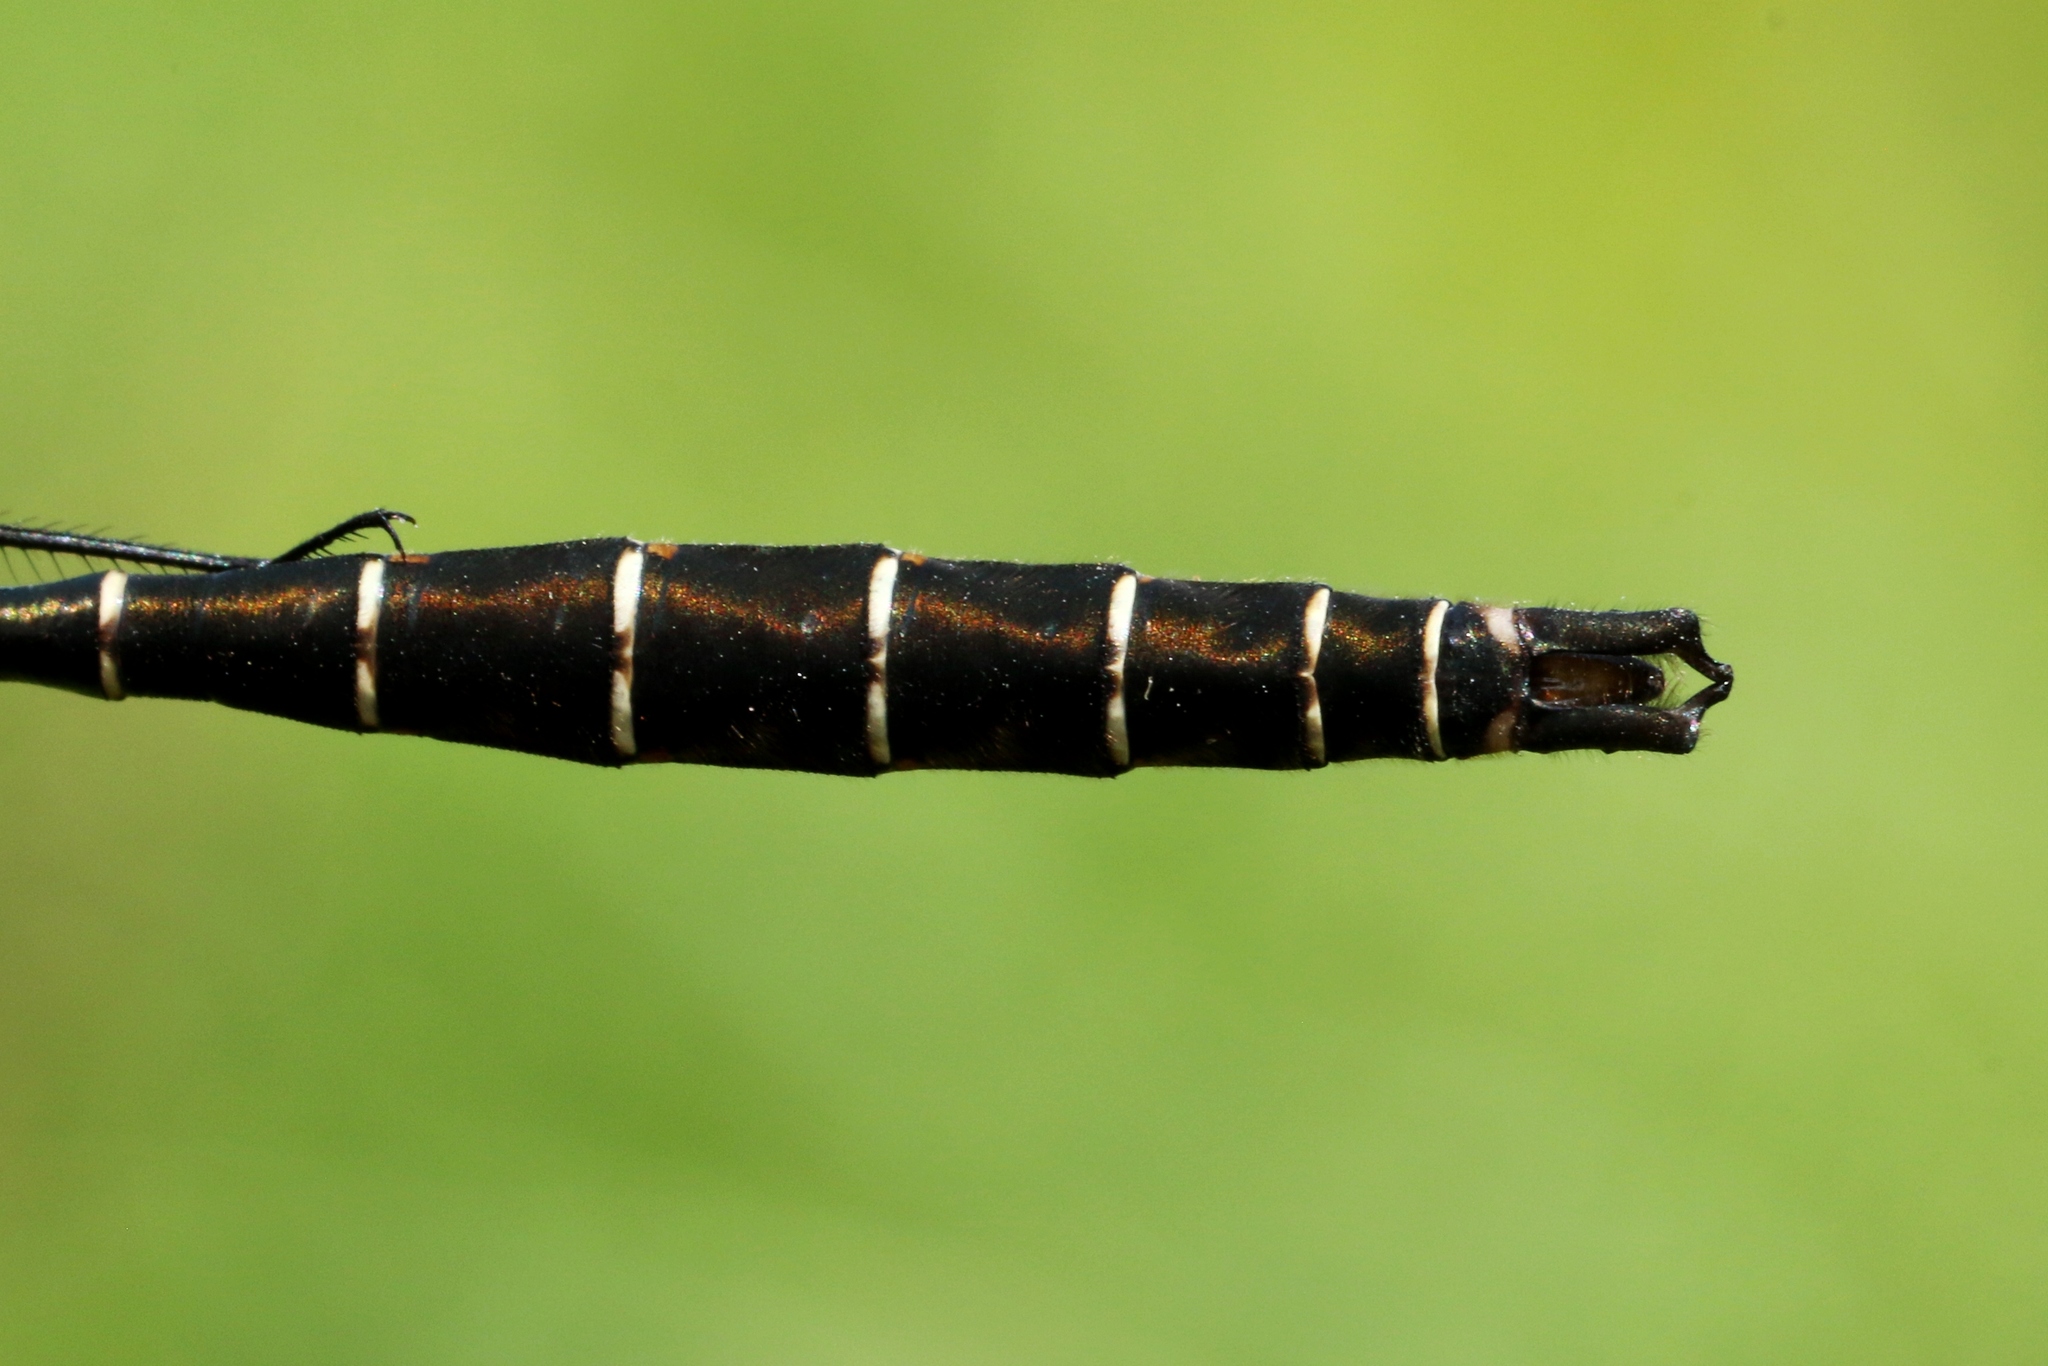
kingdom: Animalia
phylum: Arthropoda
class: Insecta
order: Odonata
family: Corduliidae
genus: Somatochlora
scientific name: Somatochlora albicincta
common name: Ringed emerald
